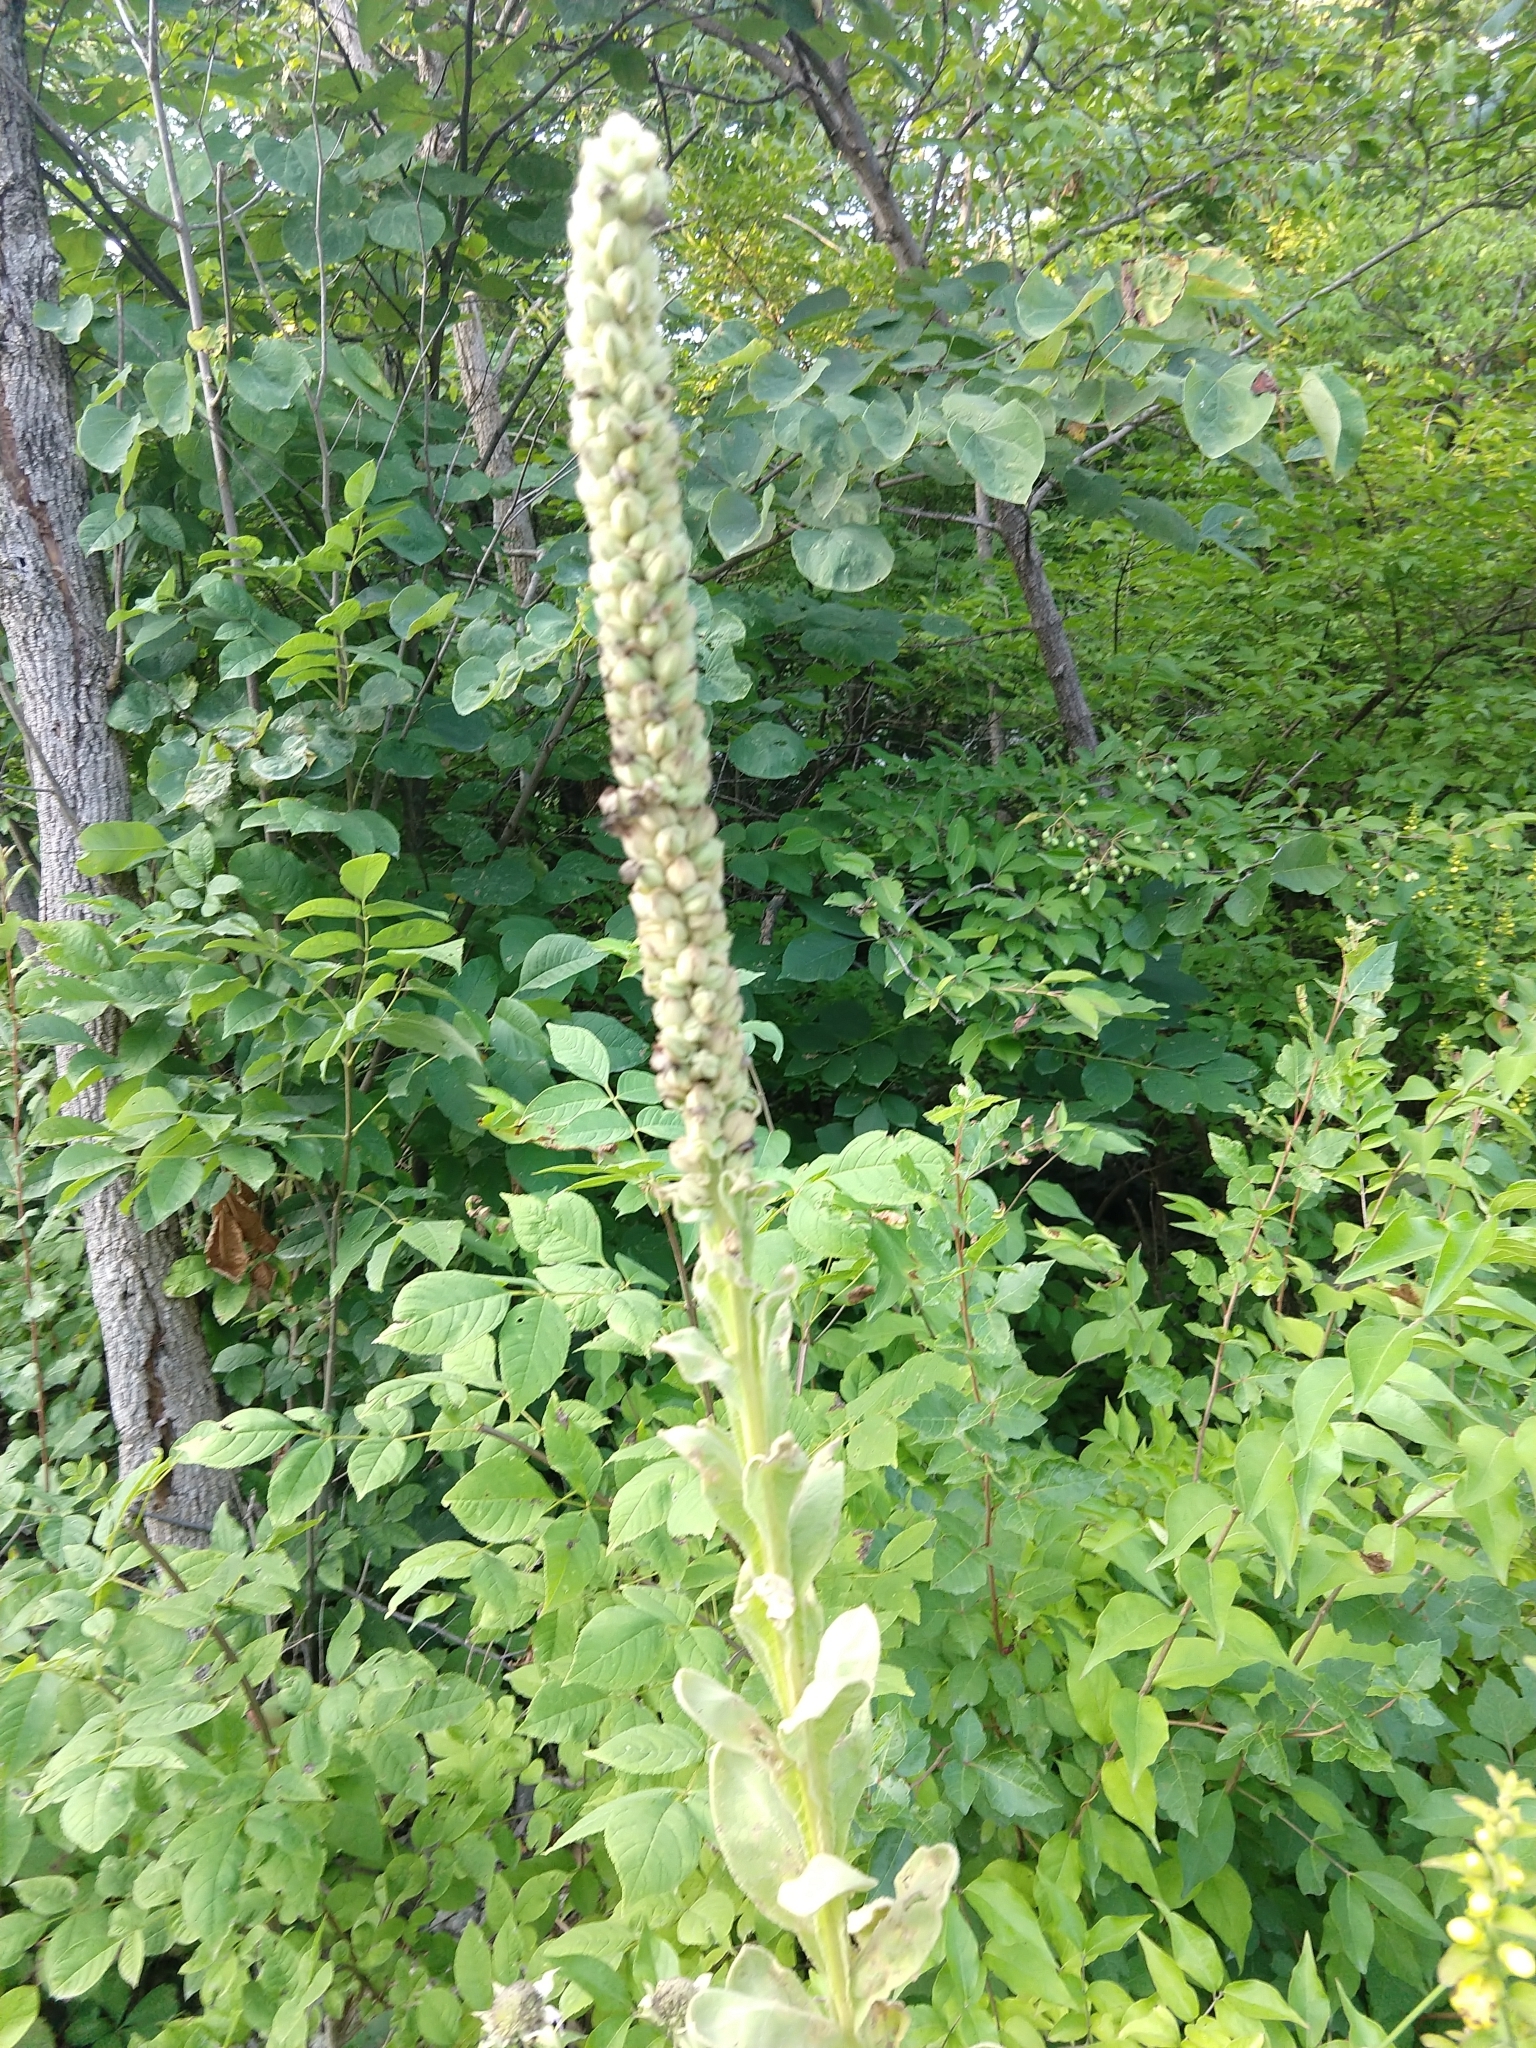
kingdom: Plantae
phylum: Tracheophyta
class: Magnoliopsida
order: Lamiales
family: Scrophulariaceae
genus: Verbascum
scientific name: Verbascum thapsus
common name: Common mullein
